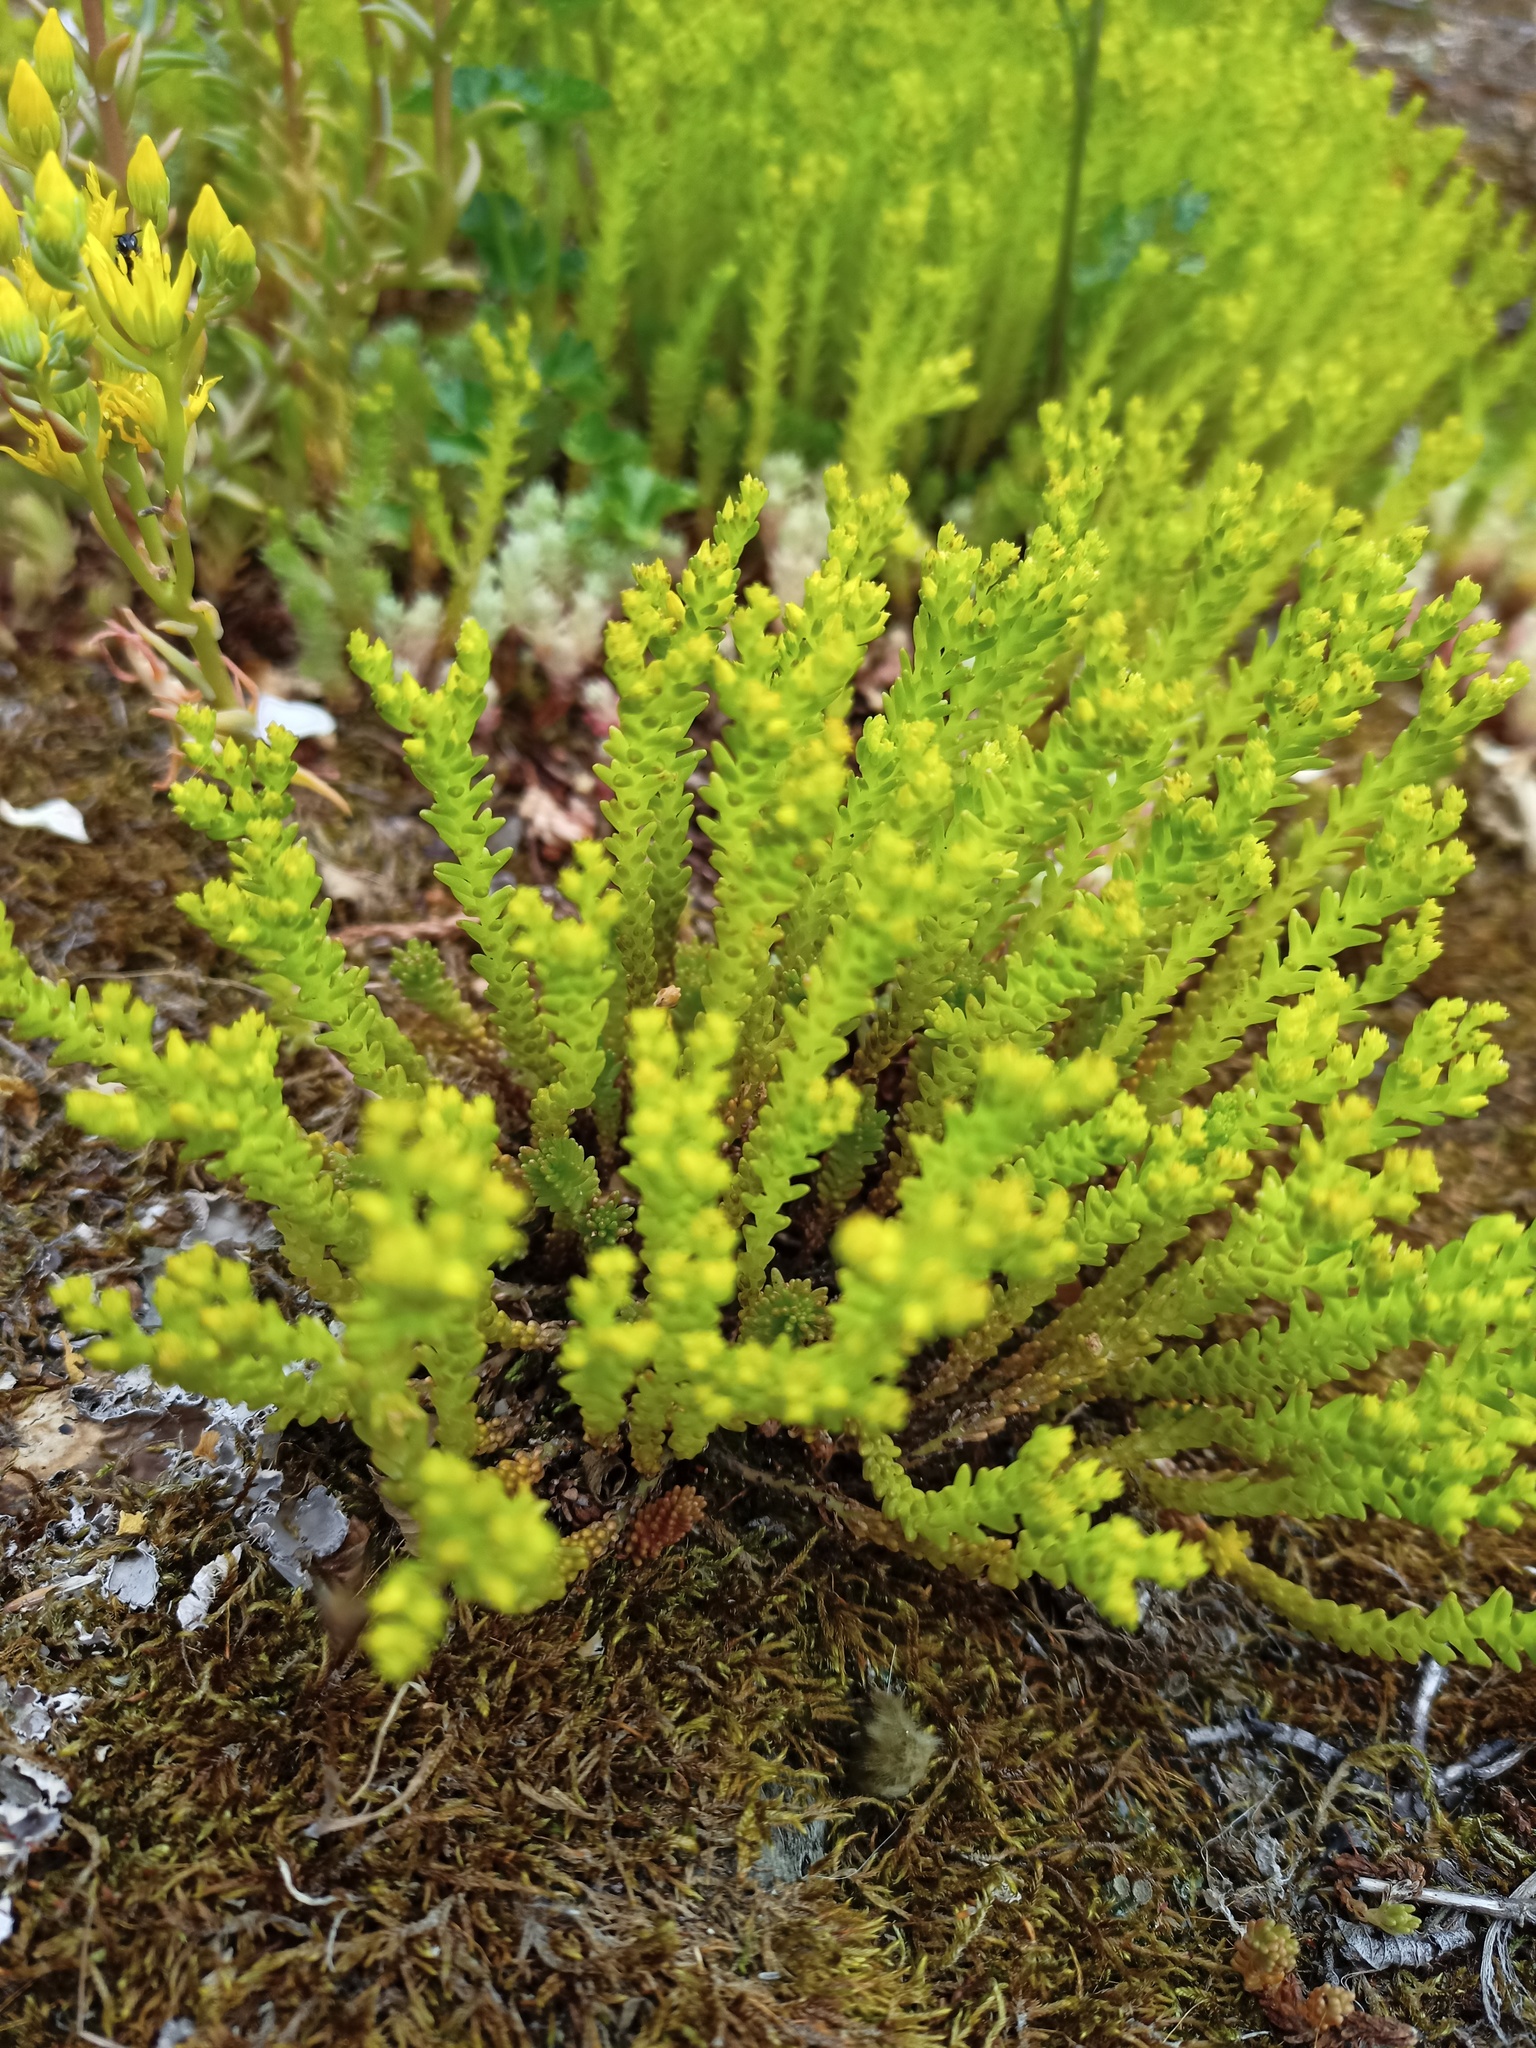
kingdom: Plantae
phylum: Tracheophyta
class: Magnoliopsida
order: Saxifragales
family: Crassulaceae
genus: Sedum
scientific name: Sedum sexangulare
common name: Tasteless stonecrop
